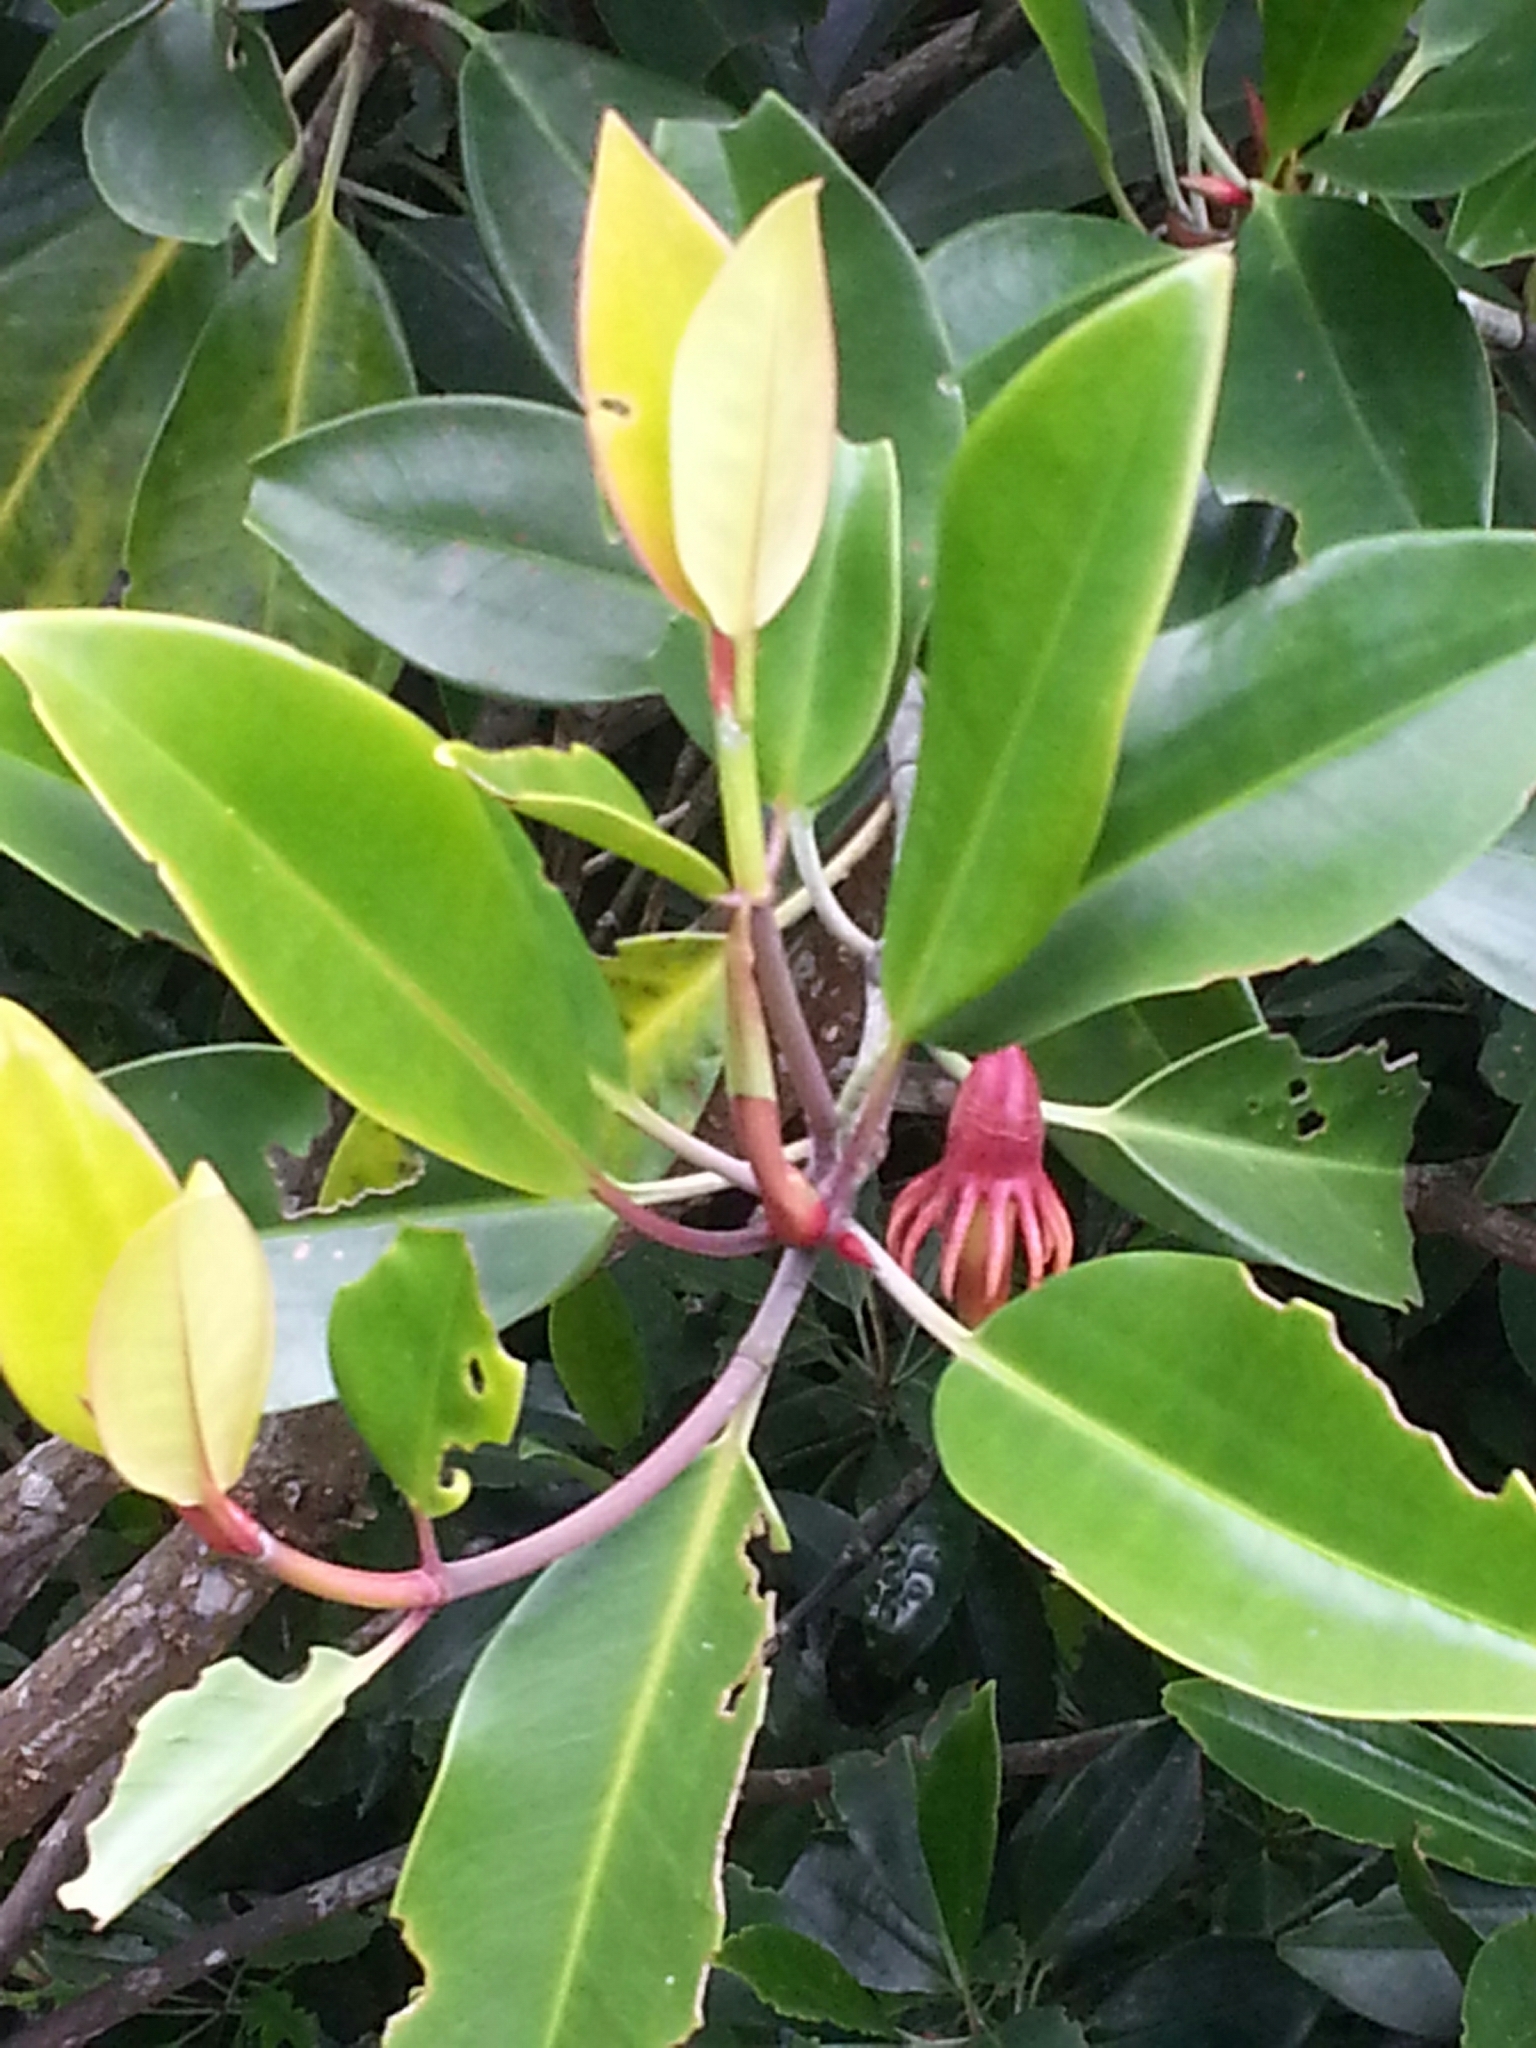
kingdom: Plantae
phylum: Tracheophyta
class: Magnoliopsida
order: Malpighiales
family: Rhizophoraceae
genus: Bruguiera
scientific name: Bruguiera gymnorhiza
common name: Oriental mangrove
